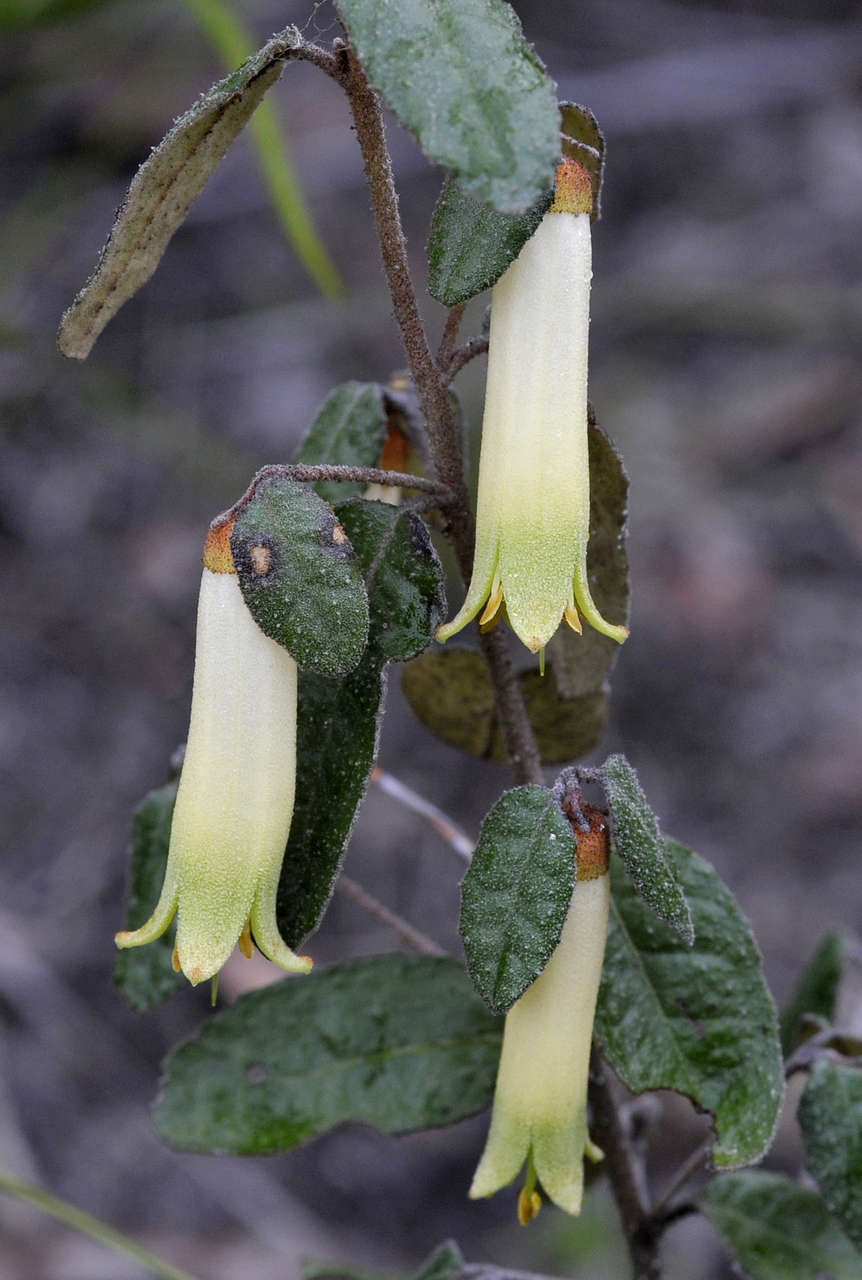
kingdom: Plantae
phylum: Tracheophyta
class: Magnoliopsida
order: Sapindales
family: Rutaceae
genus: Correa
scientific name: Correa reflexa
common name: Common correa
